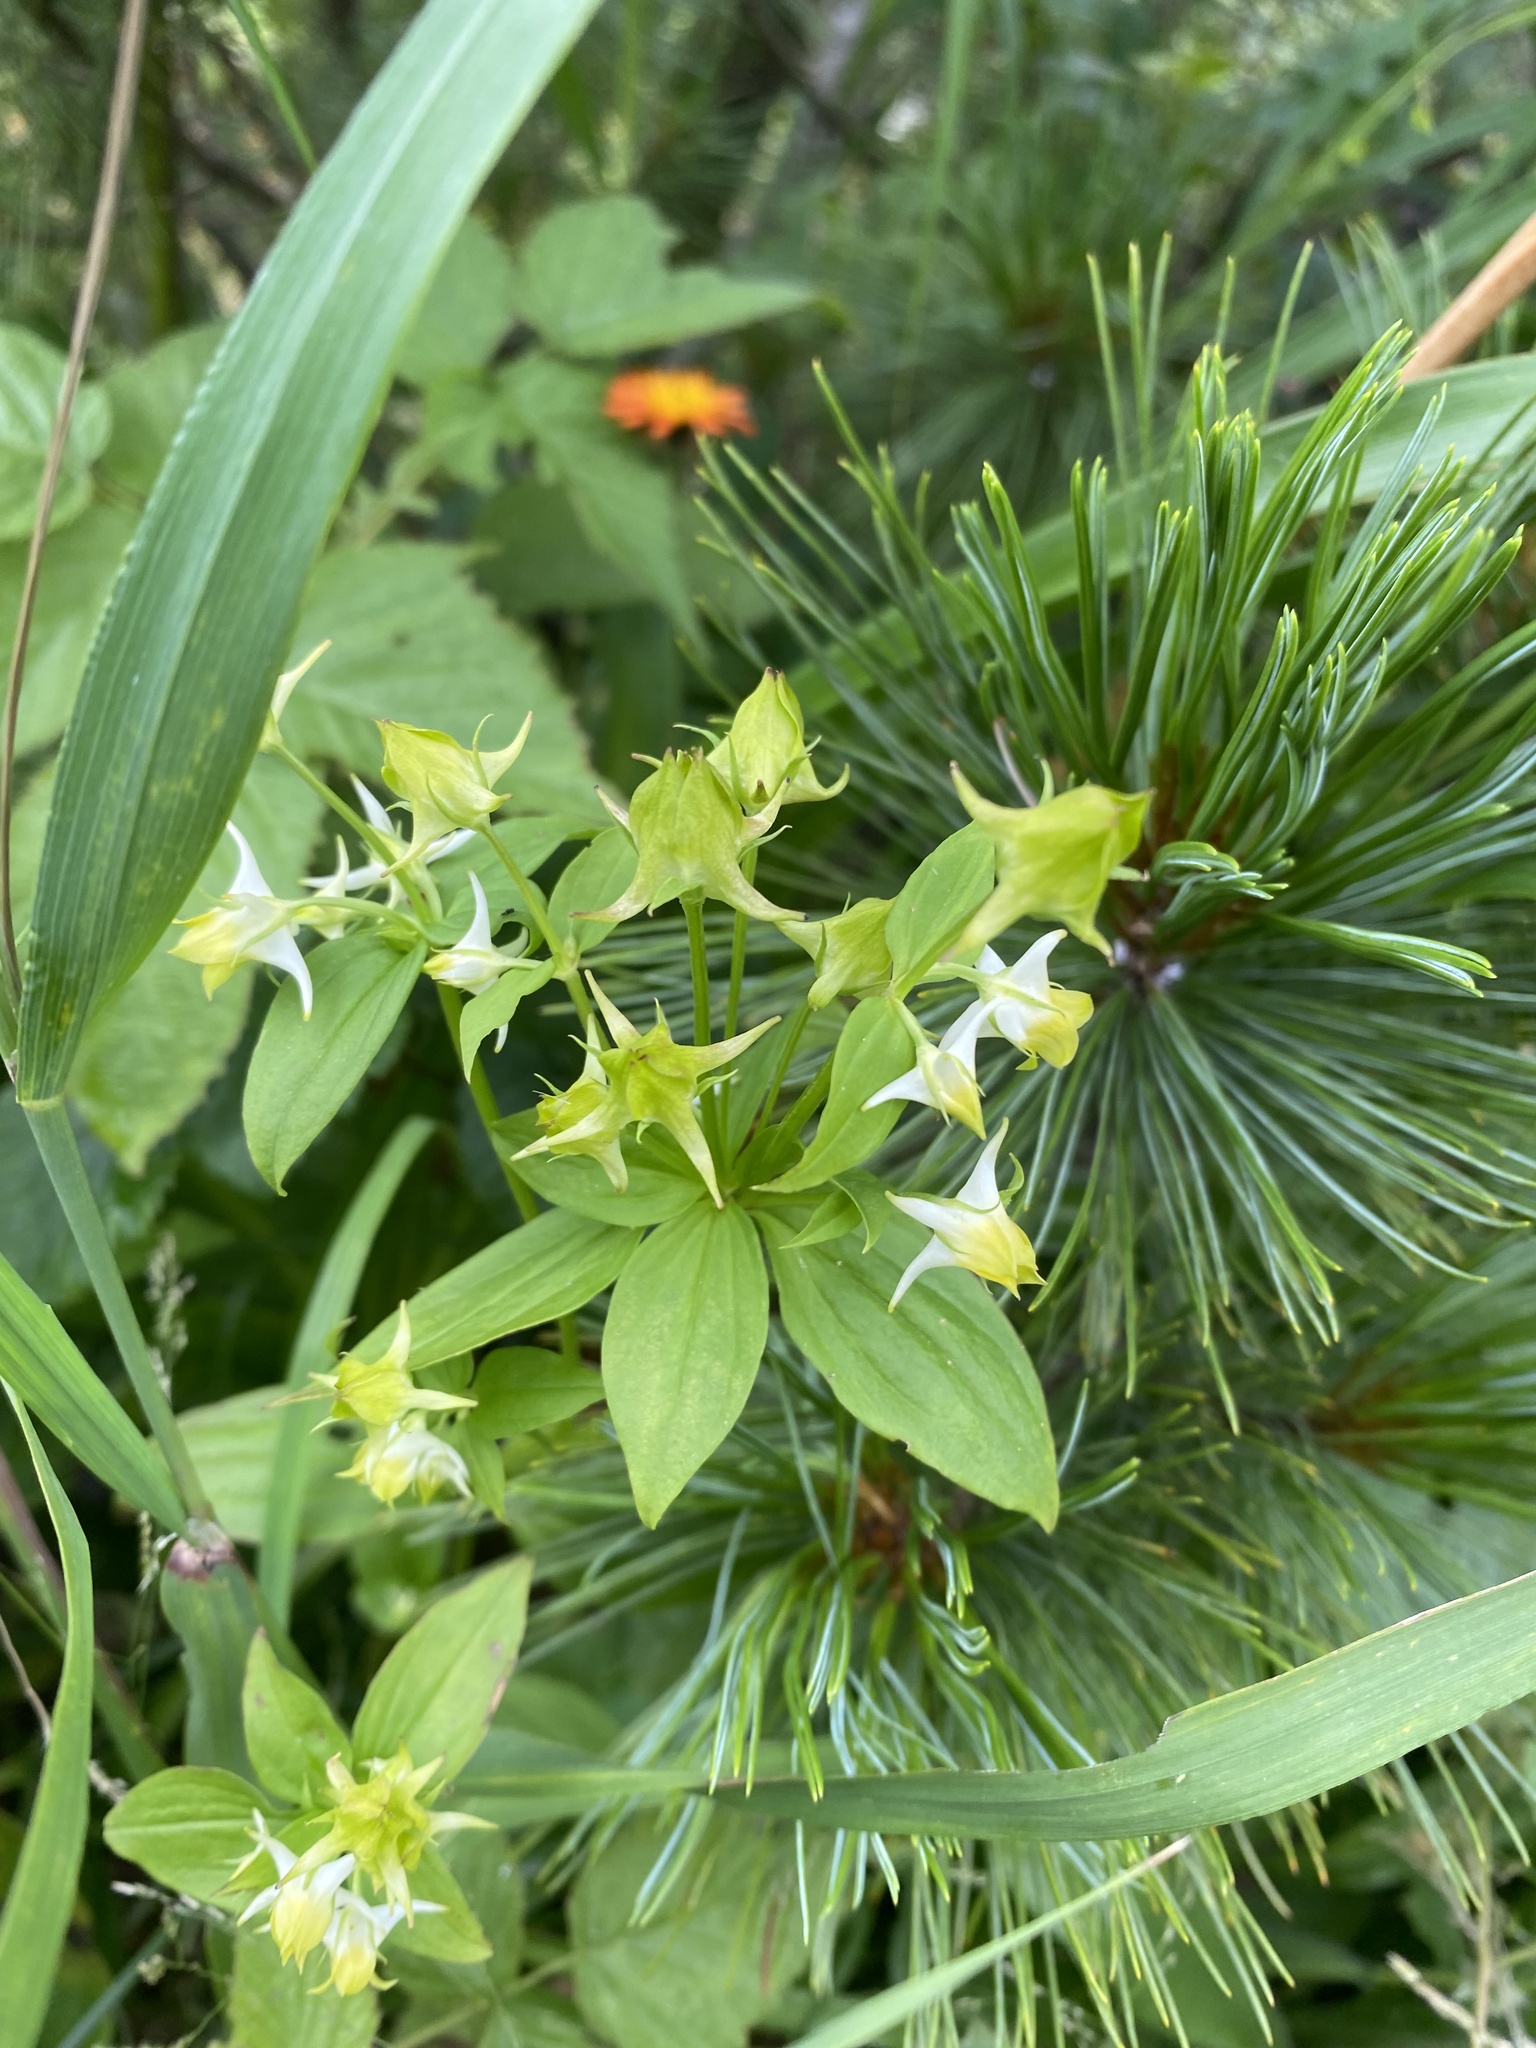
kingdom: Plantae
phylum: Tracheophyta
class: Magnoliopsida
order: Gentianales
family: Gentianaceae
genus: Halenia
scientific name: Halenia corniculata
